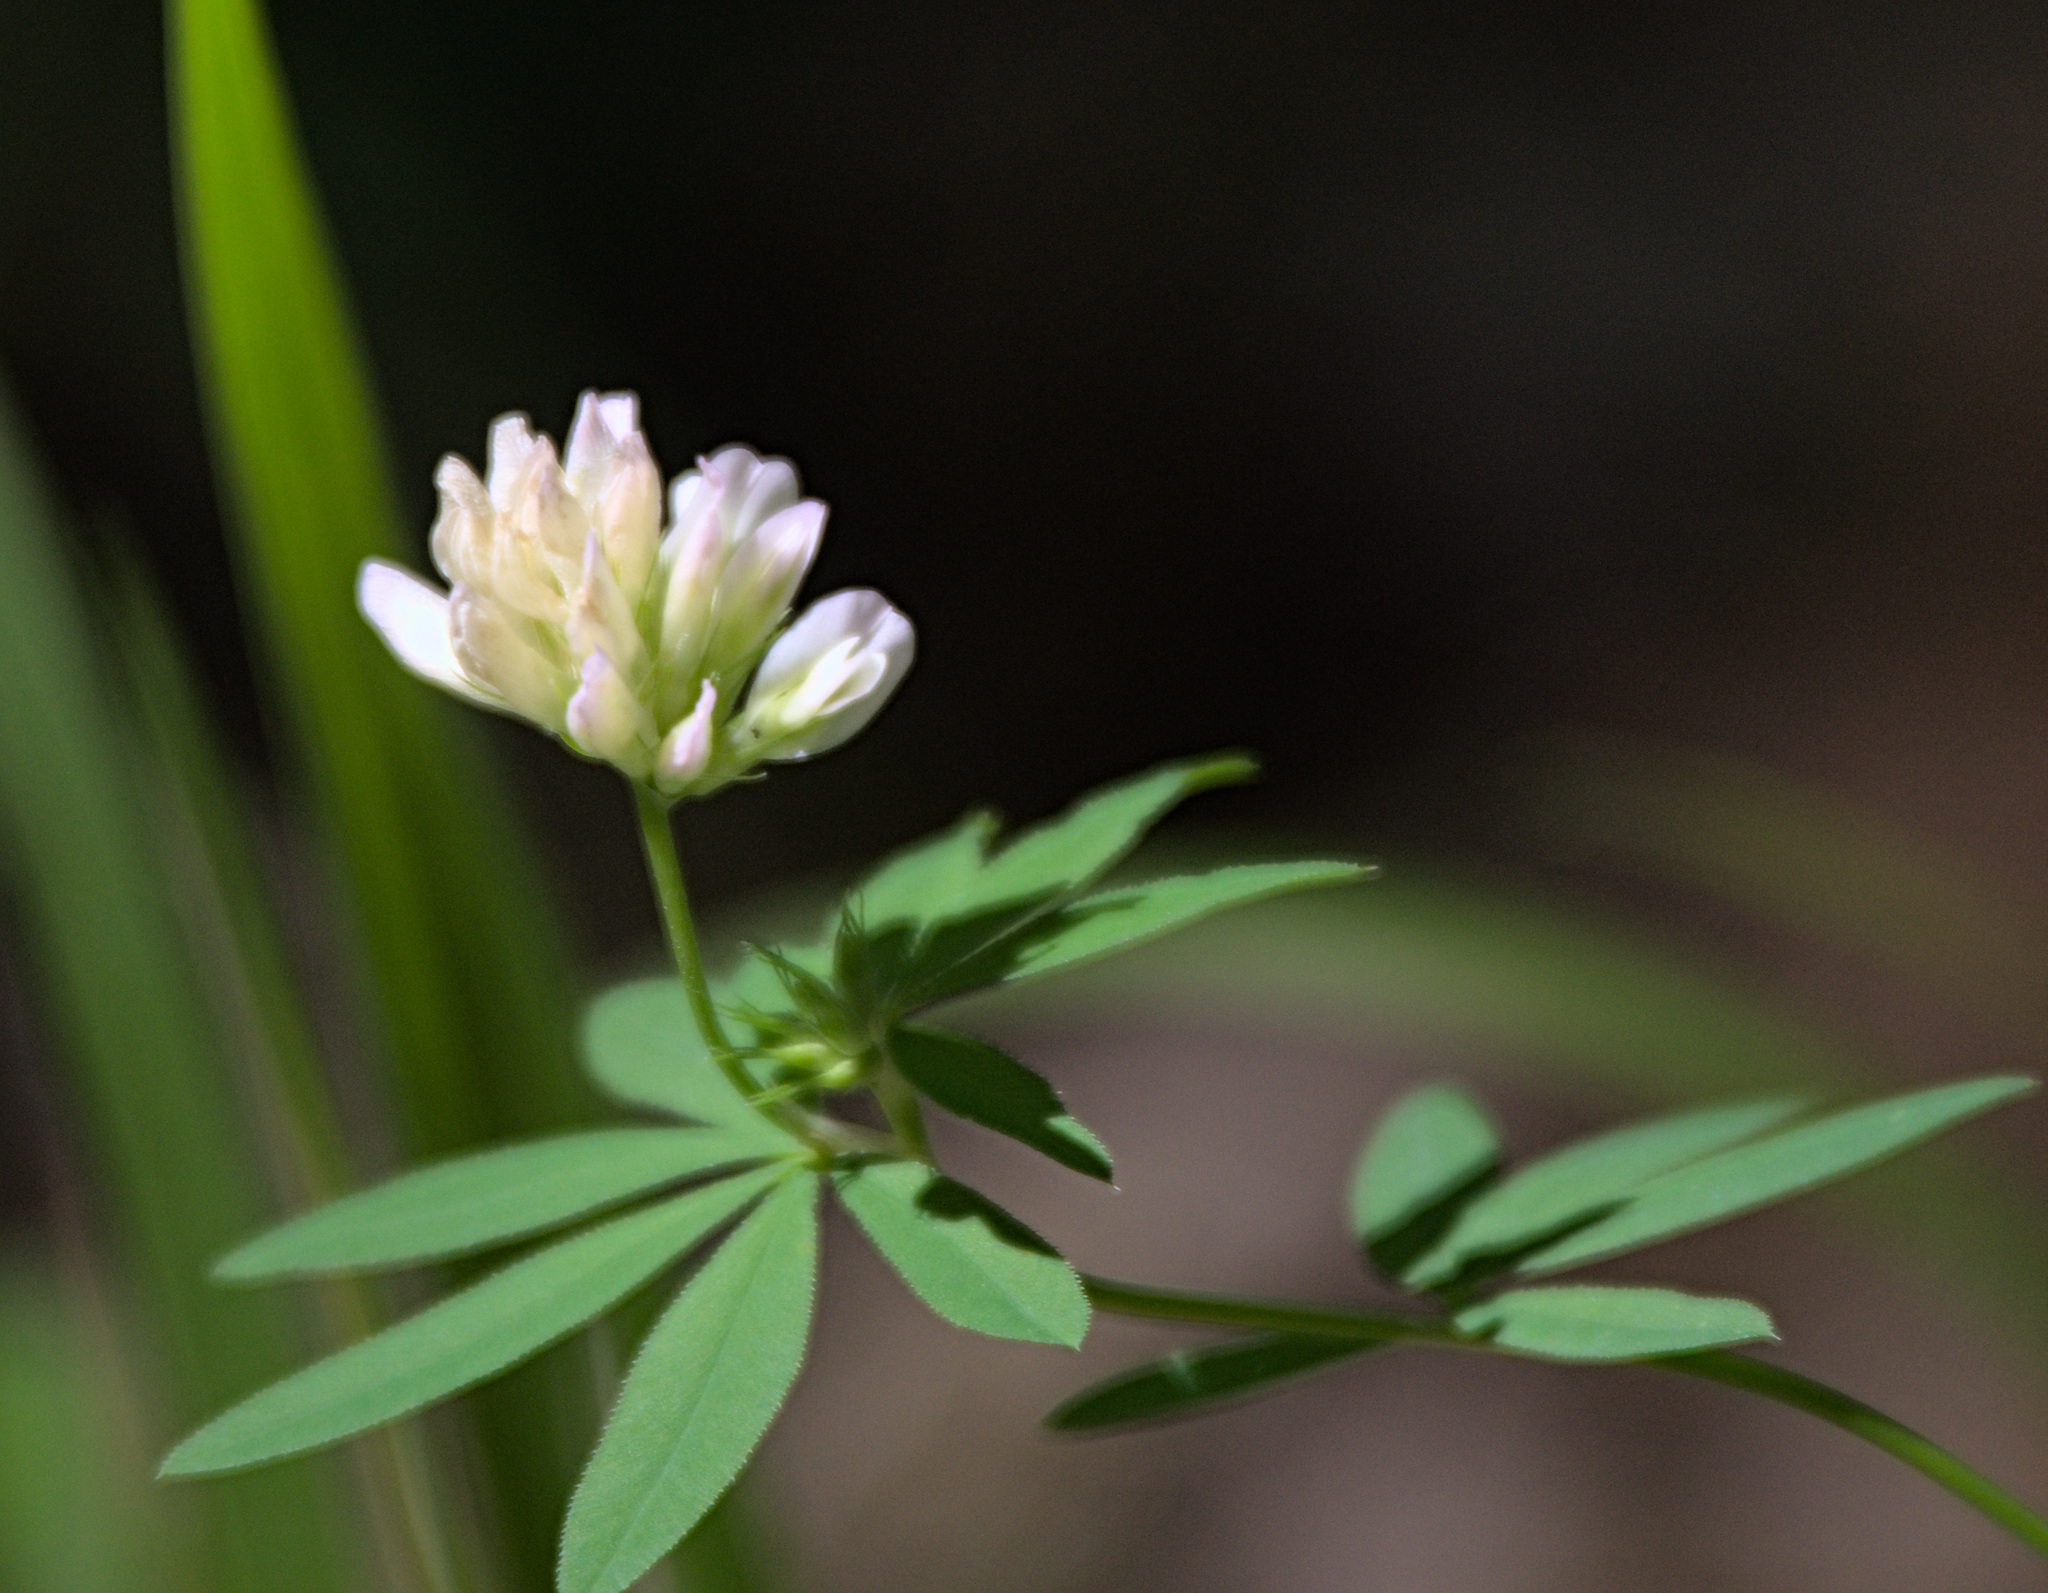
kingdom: Plantae
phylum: Tracheophyta
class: Magnoliopsida
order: Fabales
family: Fabaceae
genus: Trifolium
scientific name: Trifolium lupinaster
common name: Lupine clover
